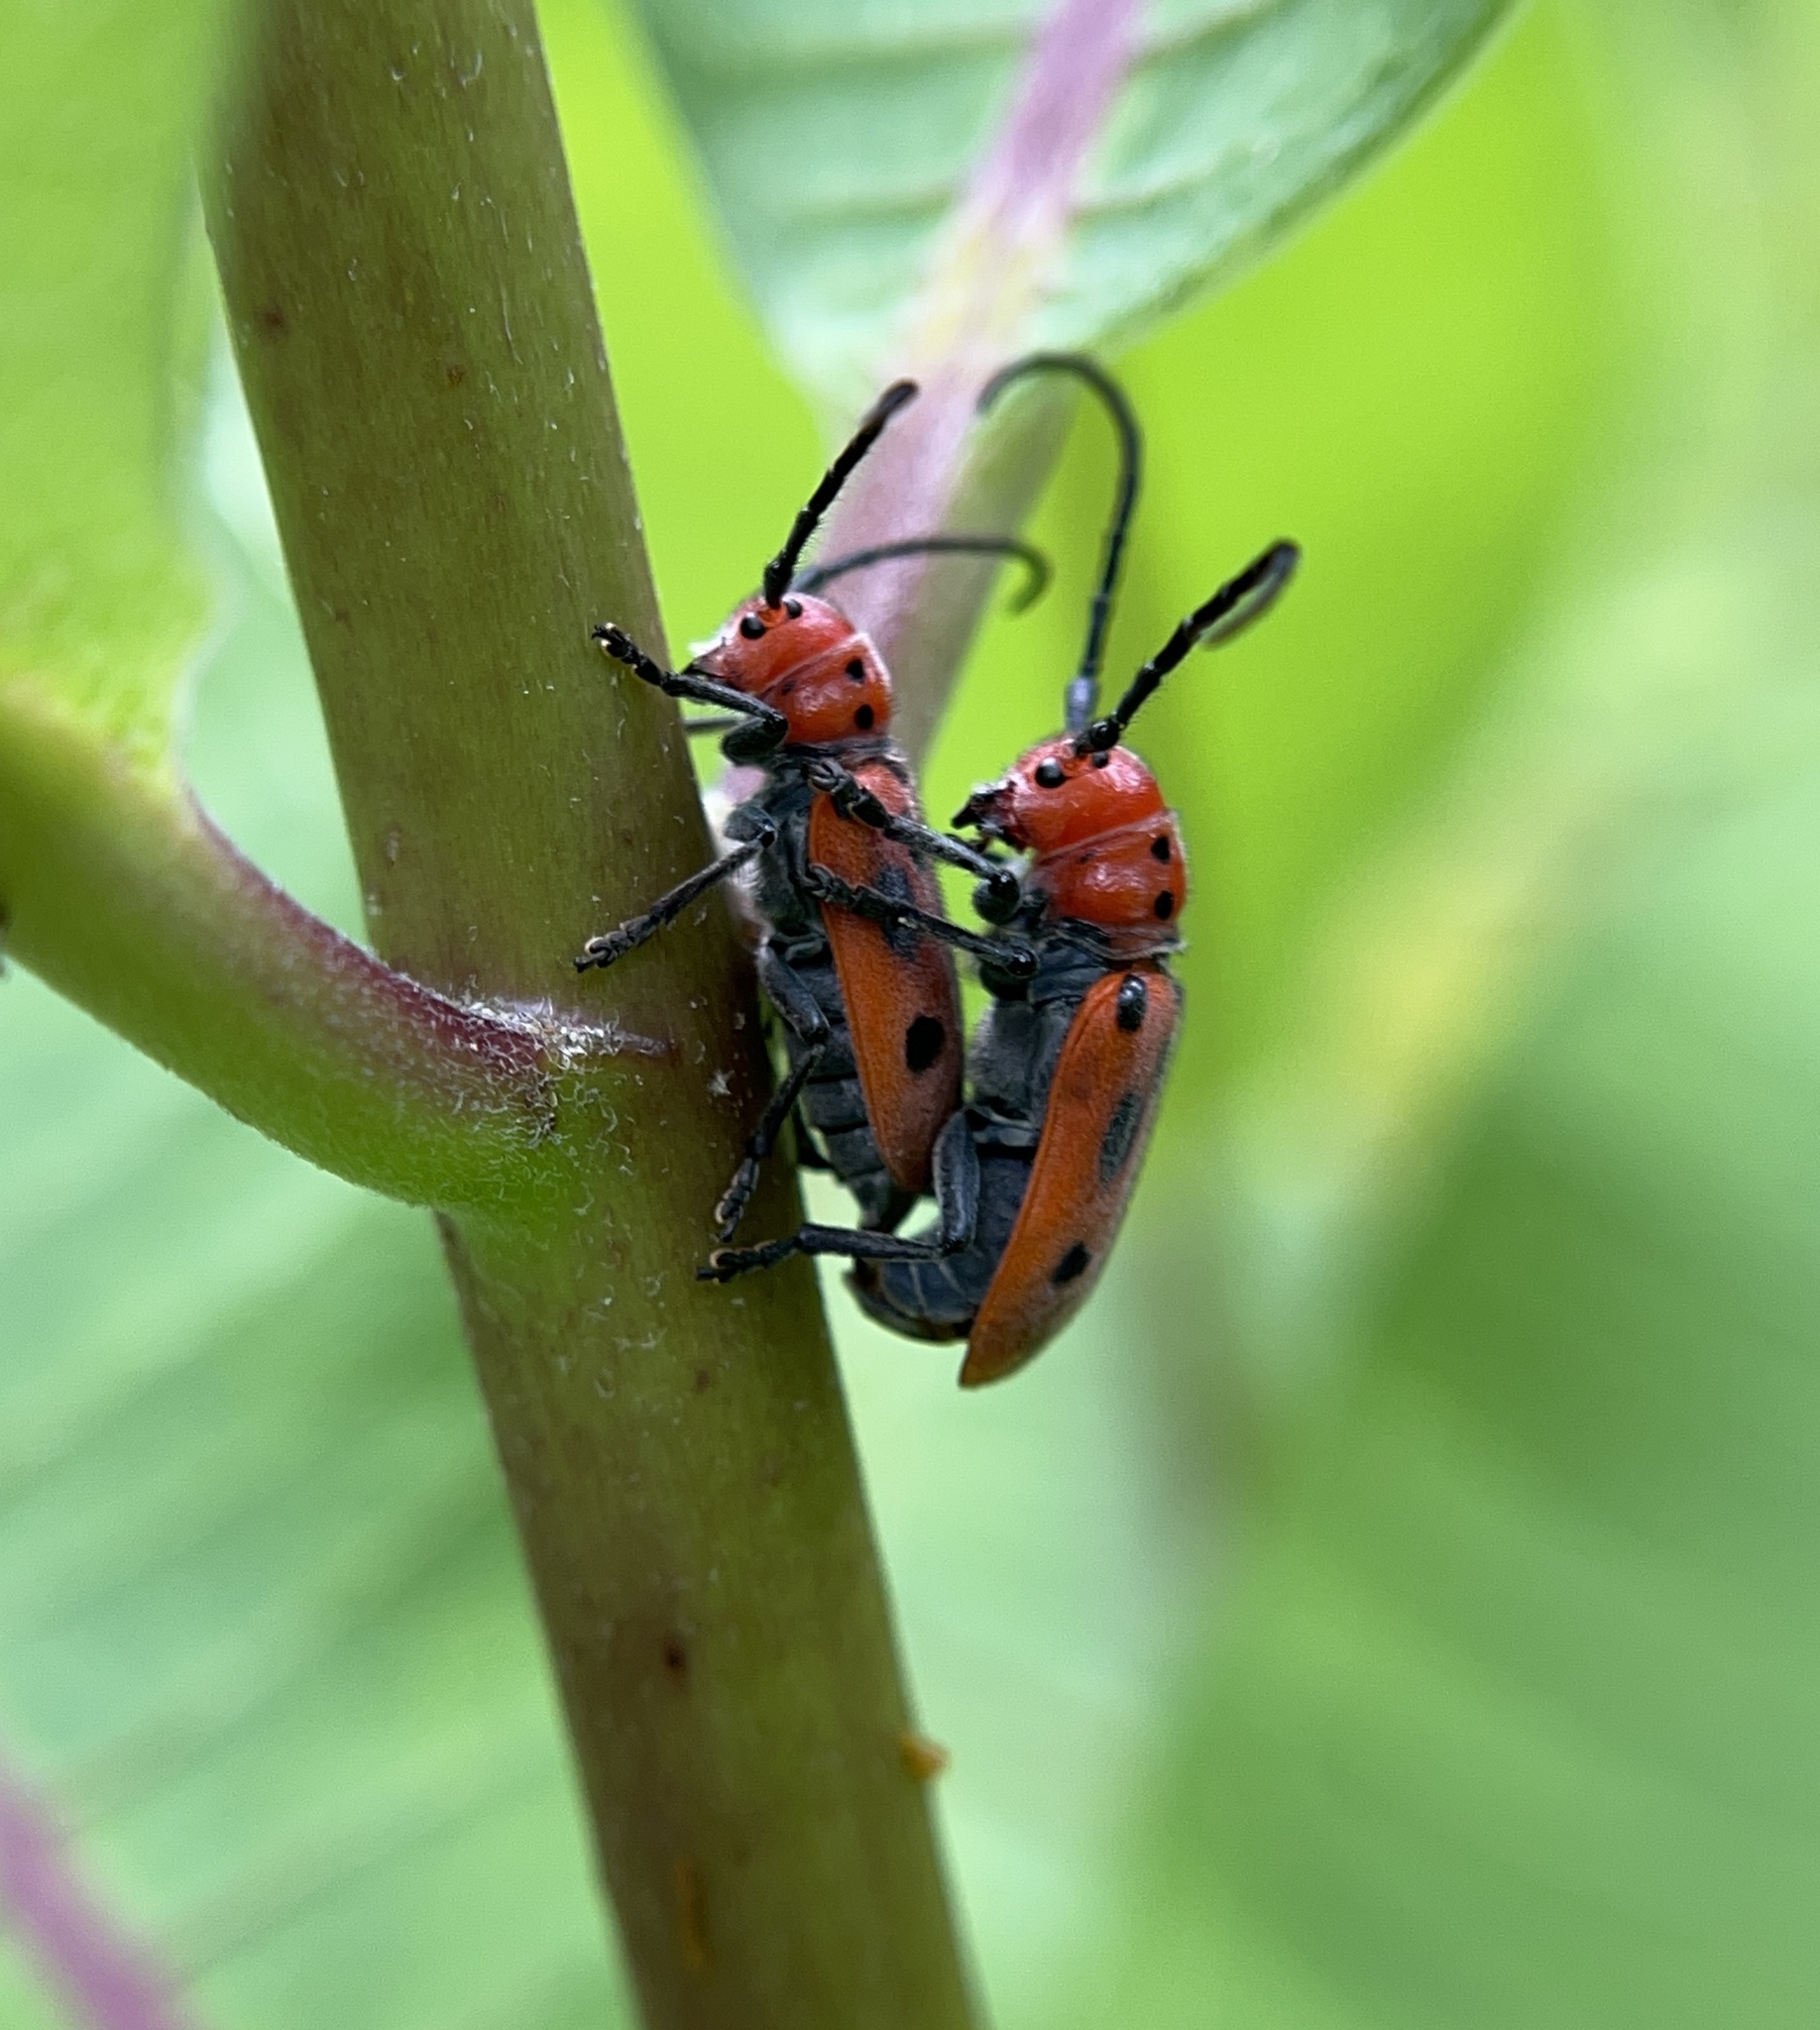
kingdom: Animalia
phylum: Arthropoda
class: Insecta
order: Coleoptera
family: Cerambycidae
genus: Tetraopes
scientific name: Tetraopes tetrophthalmus
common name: Red milkweed beetle
